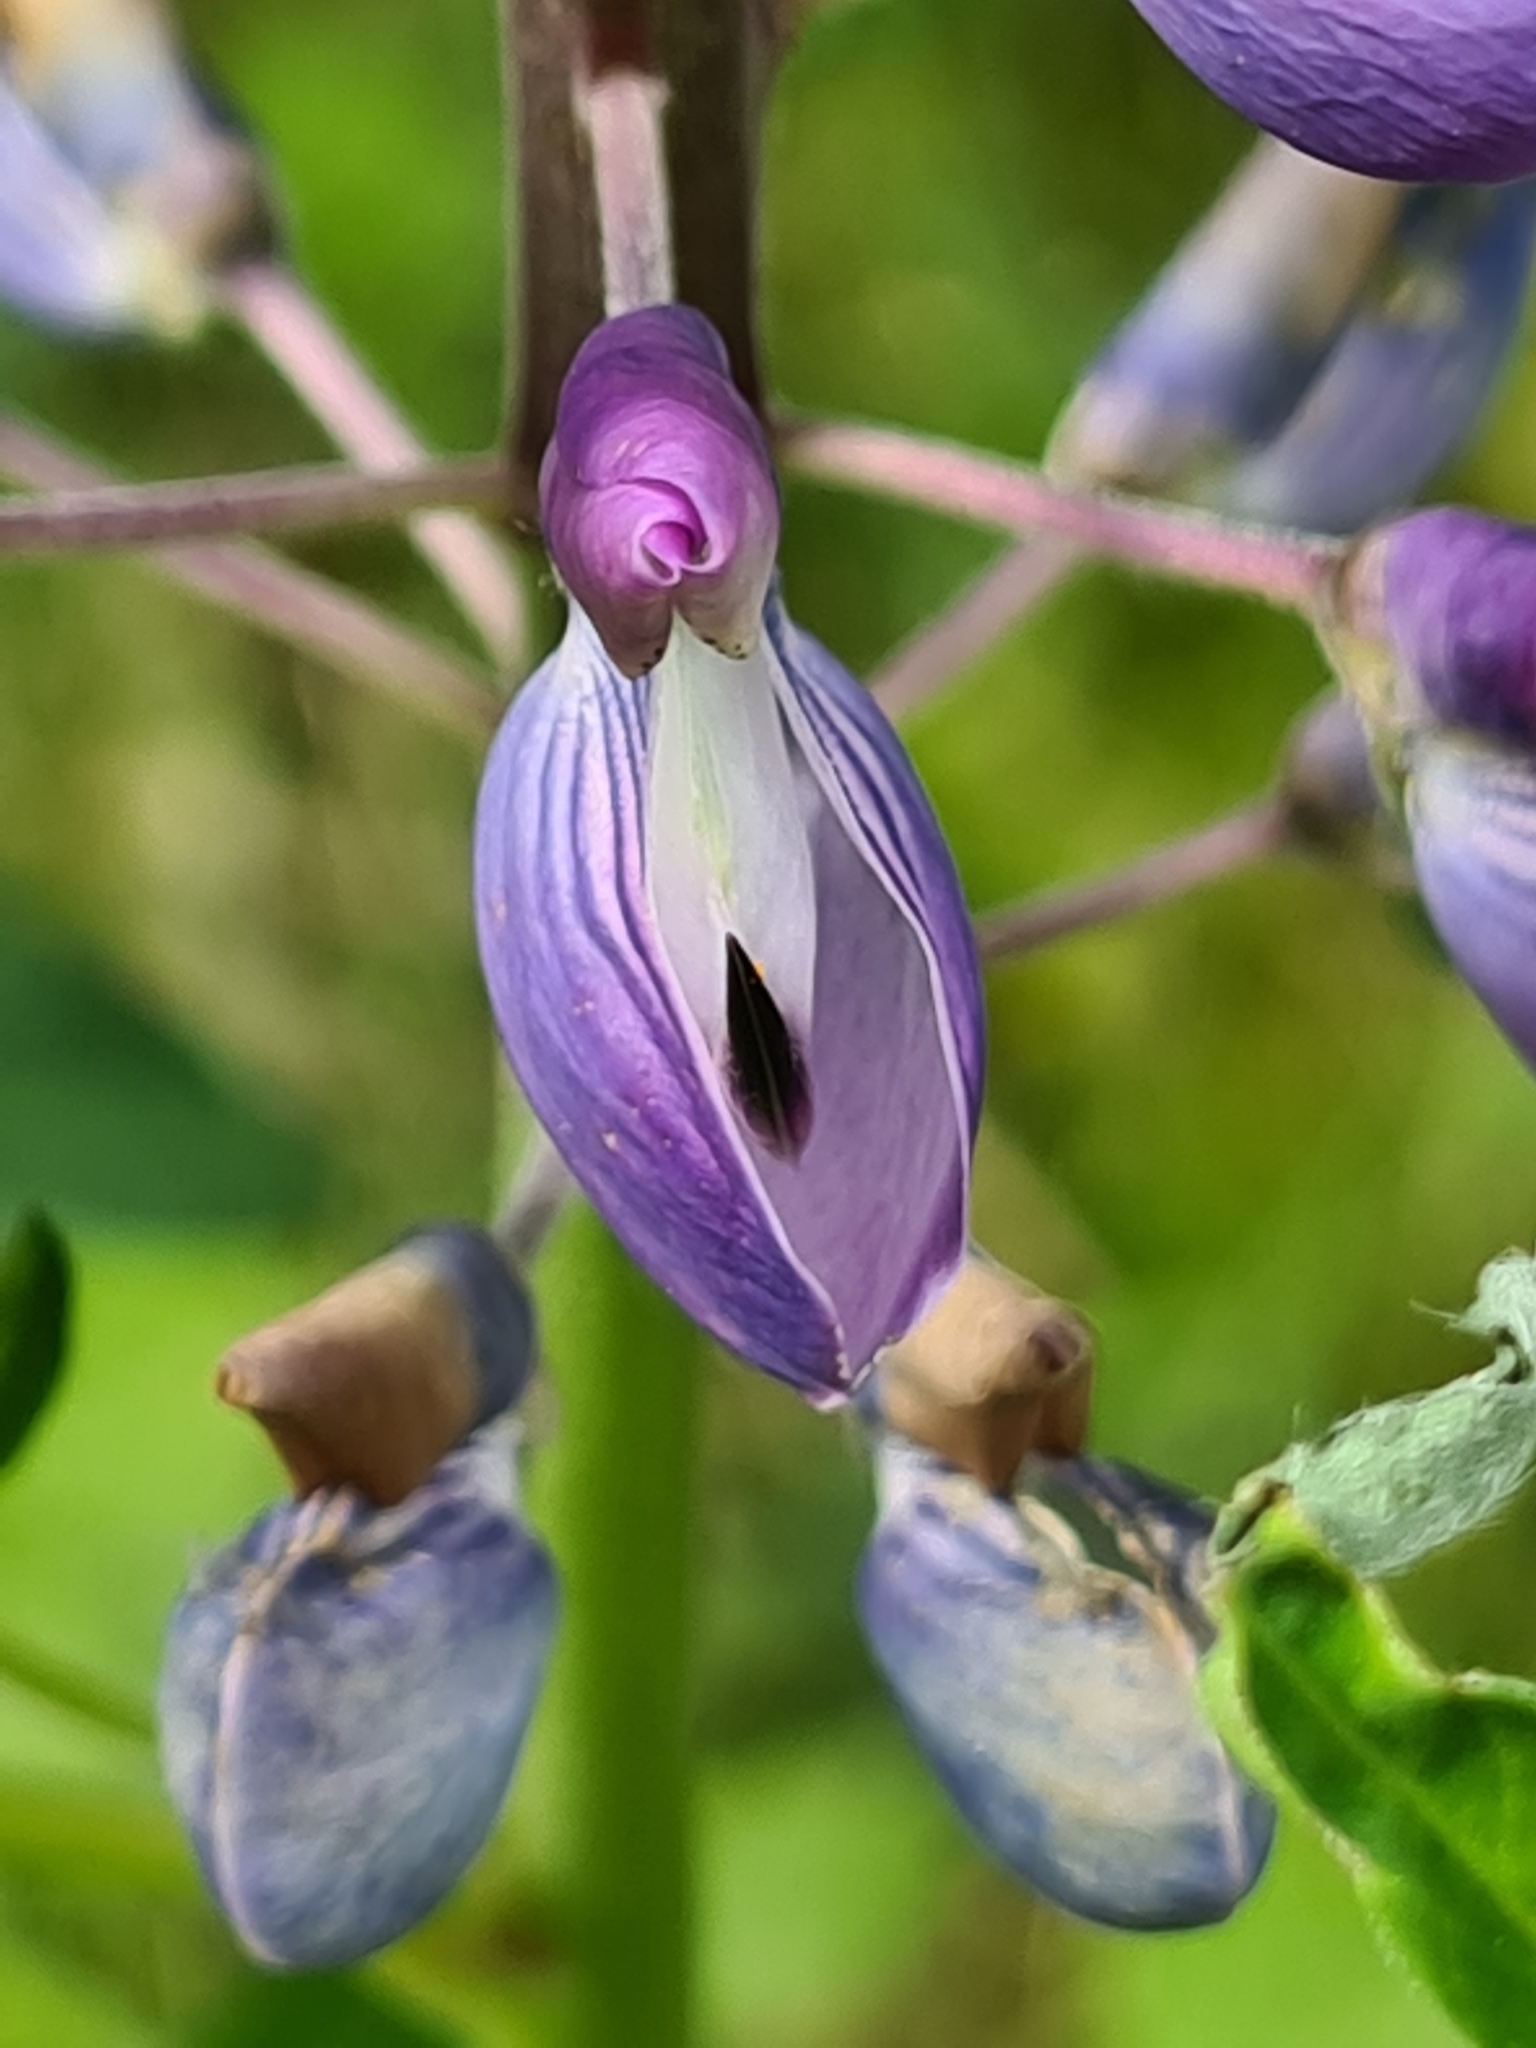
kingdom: Plantae
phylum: Tracheophyta
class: Magnoliopsida
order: Fabales
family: Fabaceae
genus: Lupinus
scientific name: Lupinus polyphyllus
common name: Garden lupin
